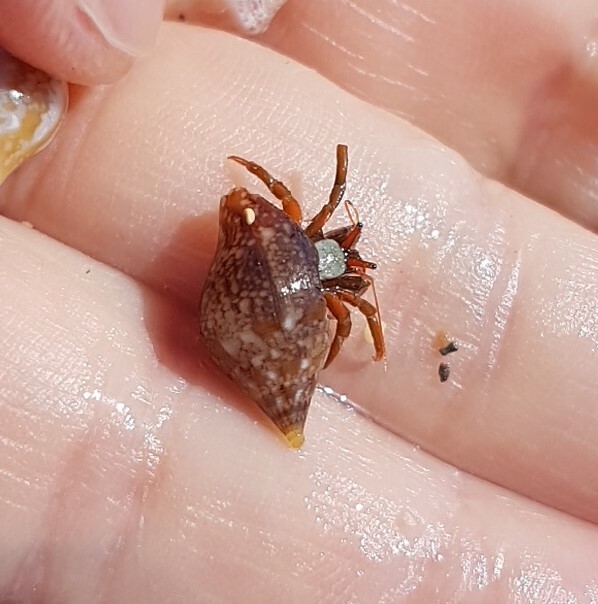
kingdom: Animalia
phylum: Arthropoda
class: Malacostraca
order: Decapoda
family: Diogenidae
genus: Clibanarius
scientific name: Clibanarius erythropus
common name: Hermit crab
